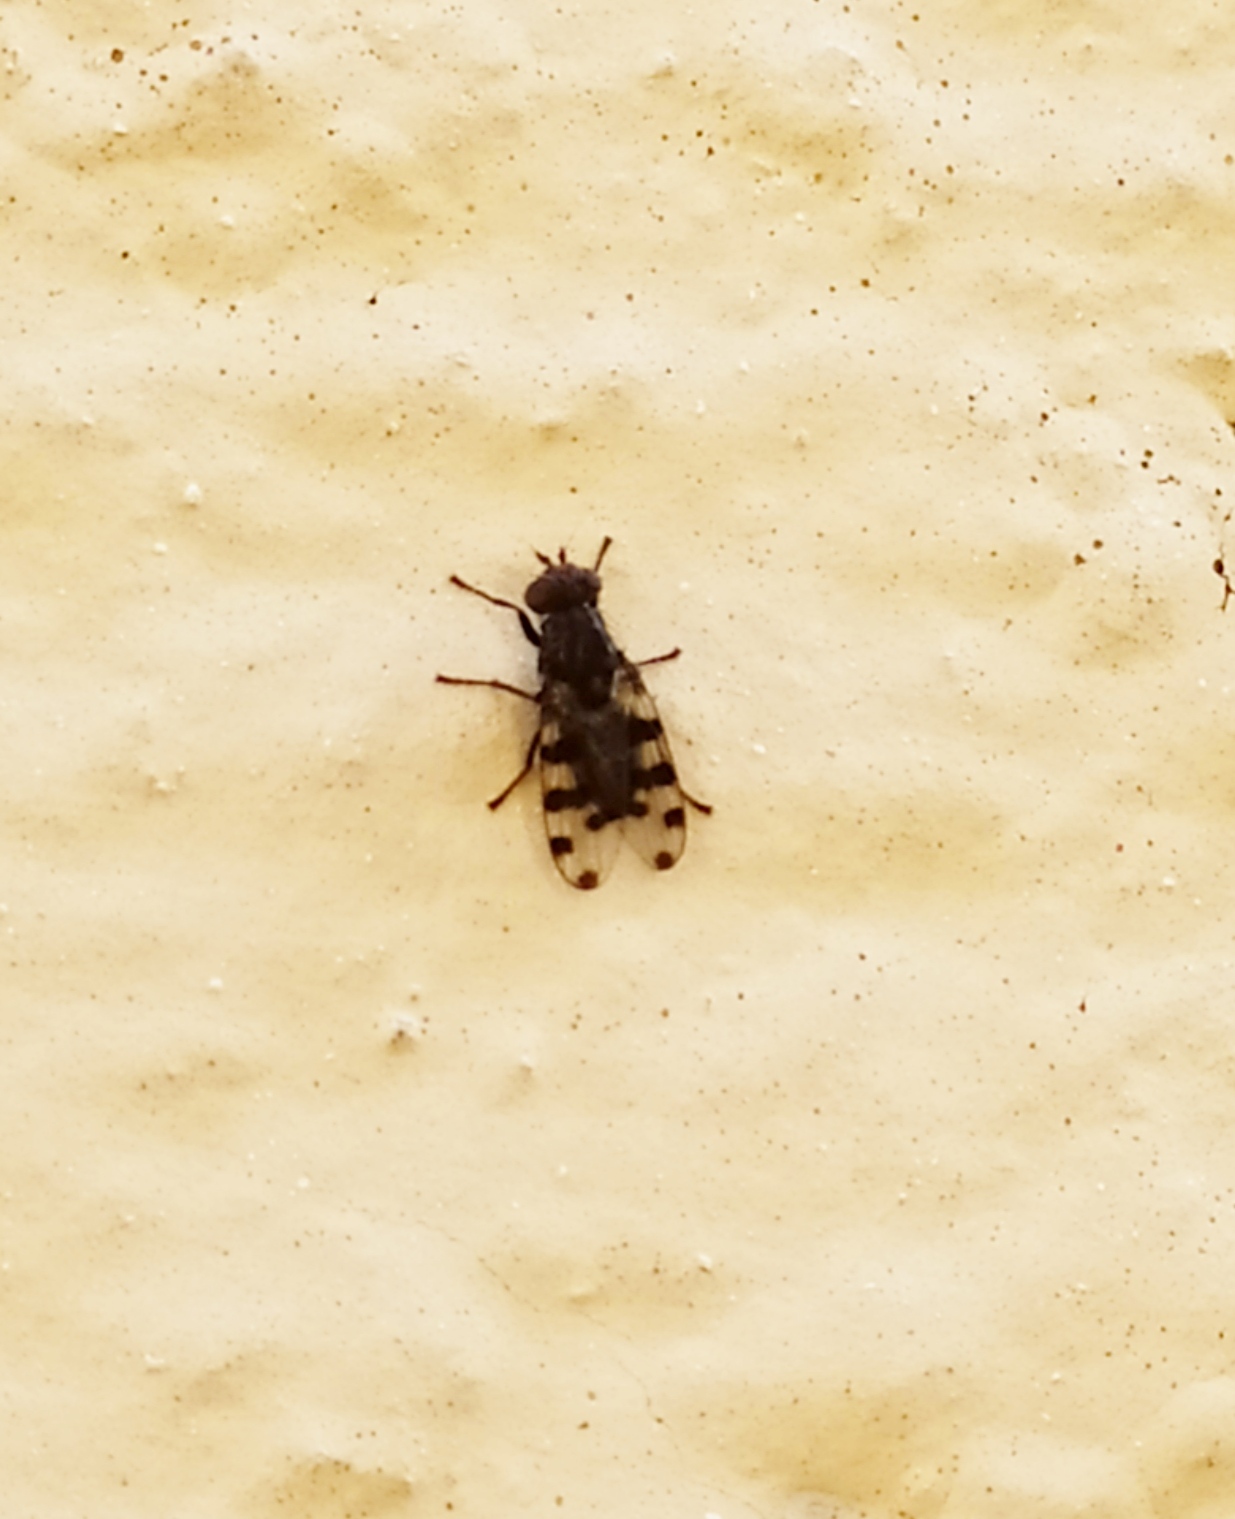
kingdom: Animalia
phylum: Arthropoda
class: Insecta
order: Diptera
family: Ulidiidae
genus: Ceroxys
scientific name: Ceroxys hyalinata
